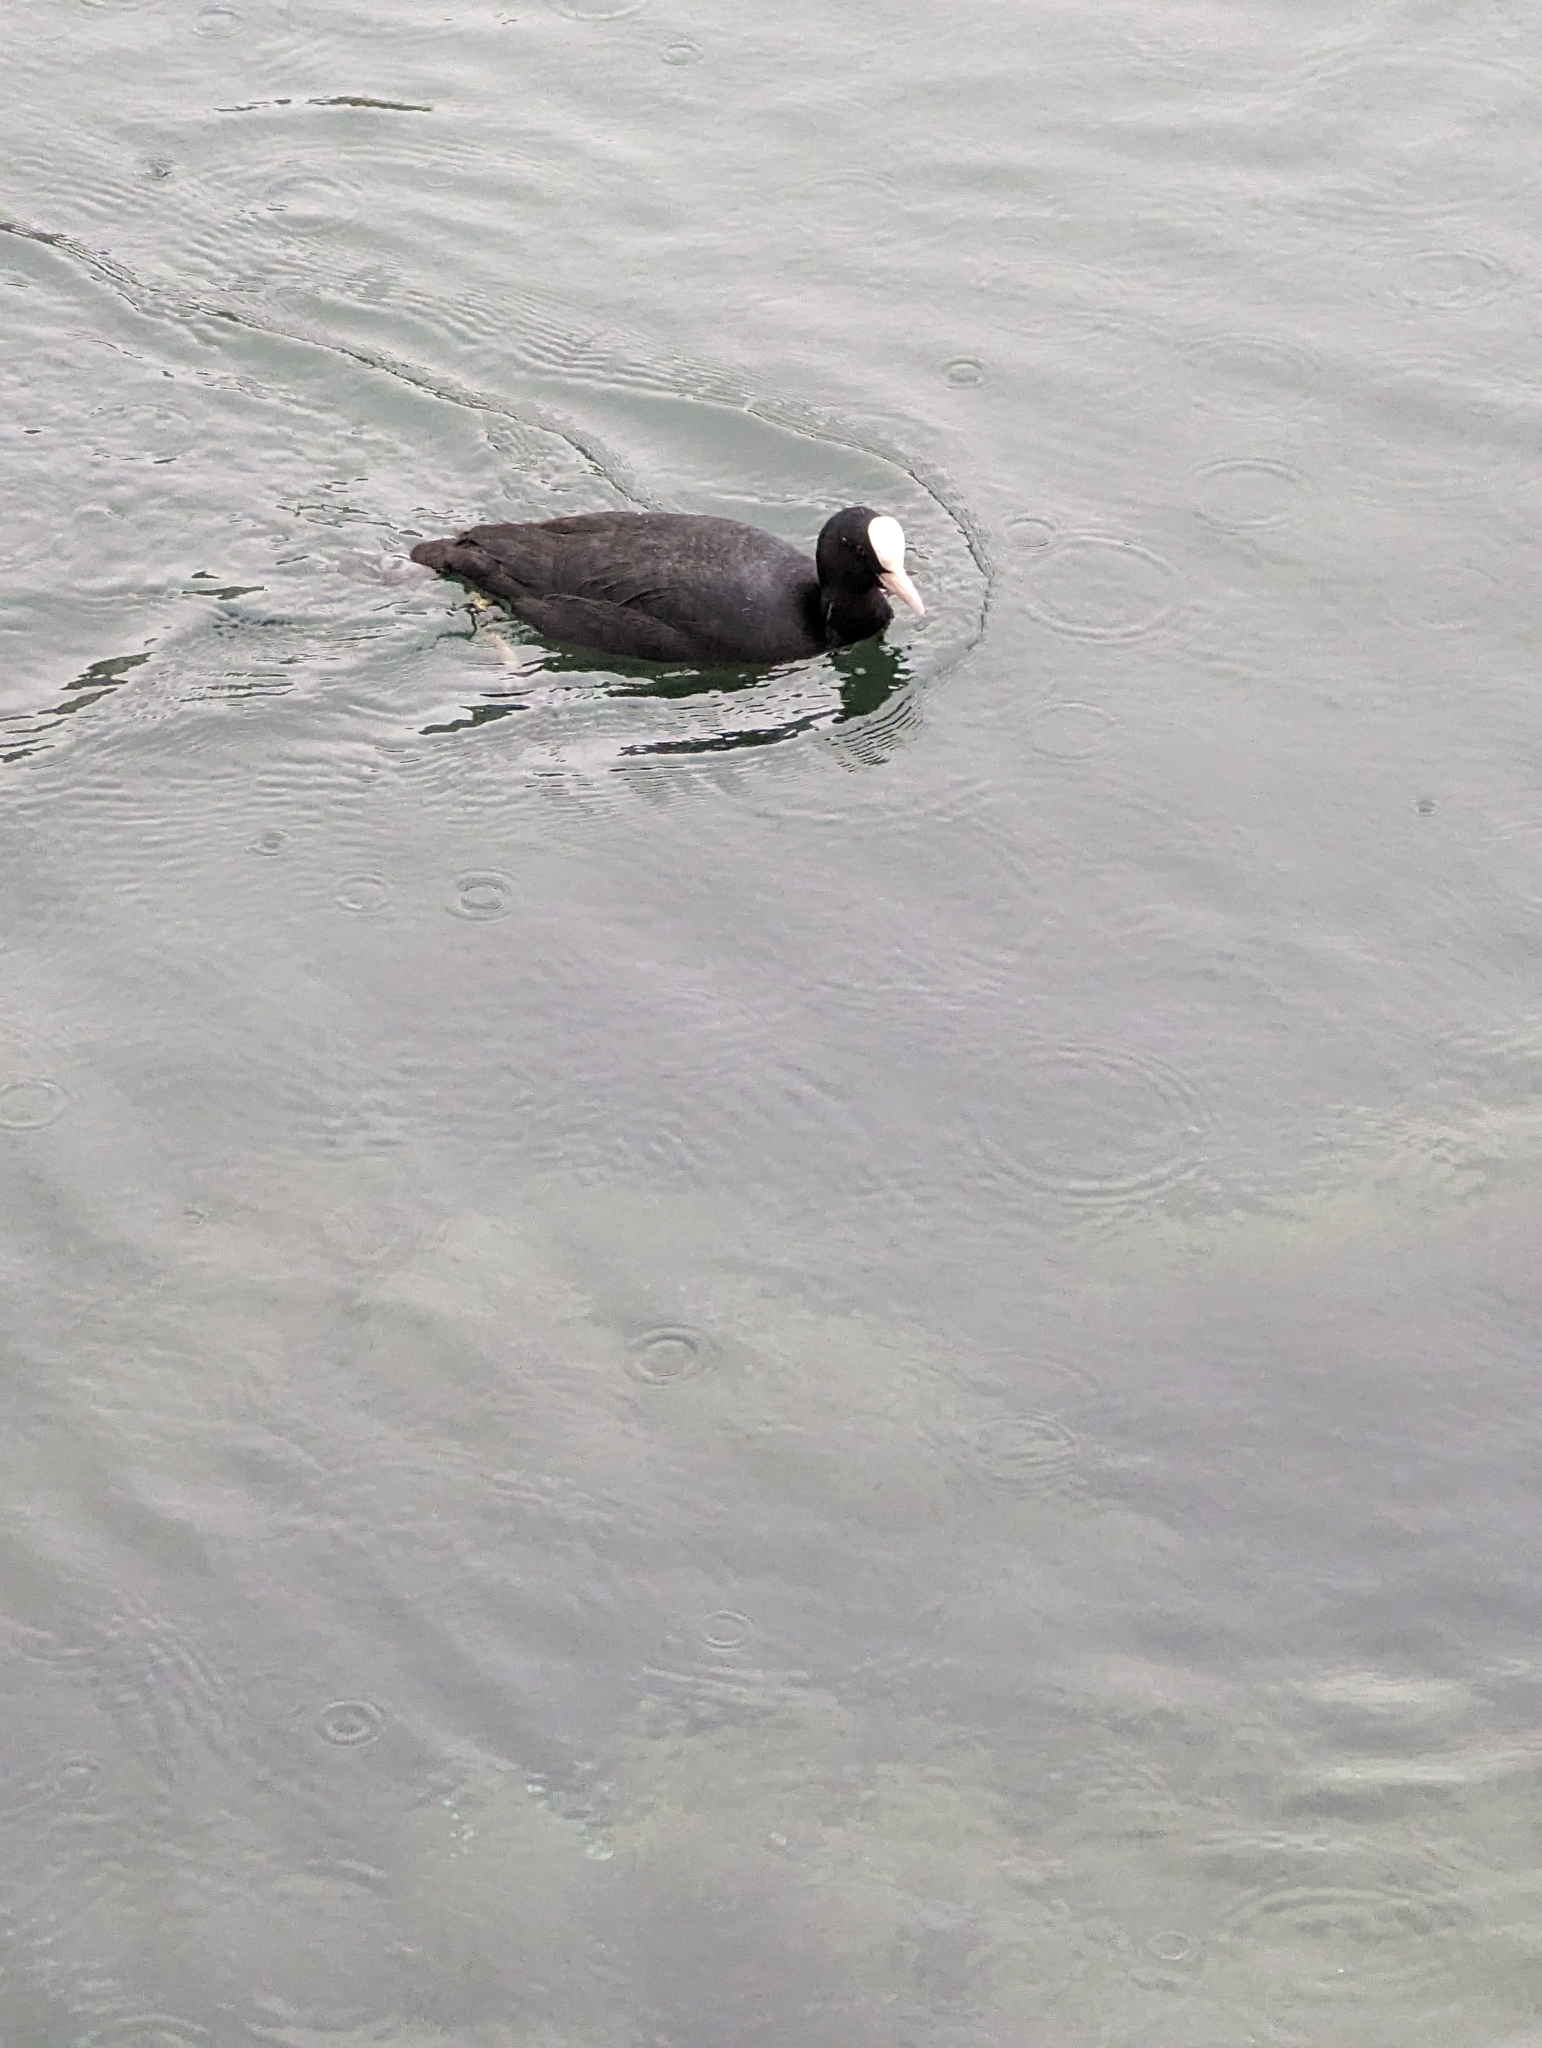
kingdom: Animalia
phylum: Chordata
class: Aves
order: Gruiformes
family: Rallidae
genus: Fulica
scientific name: Fulica atra
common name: Eurasian coot
